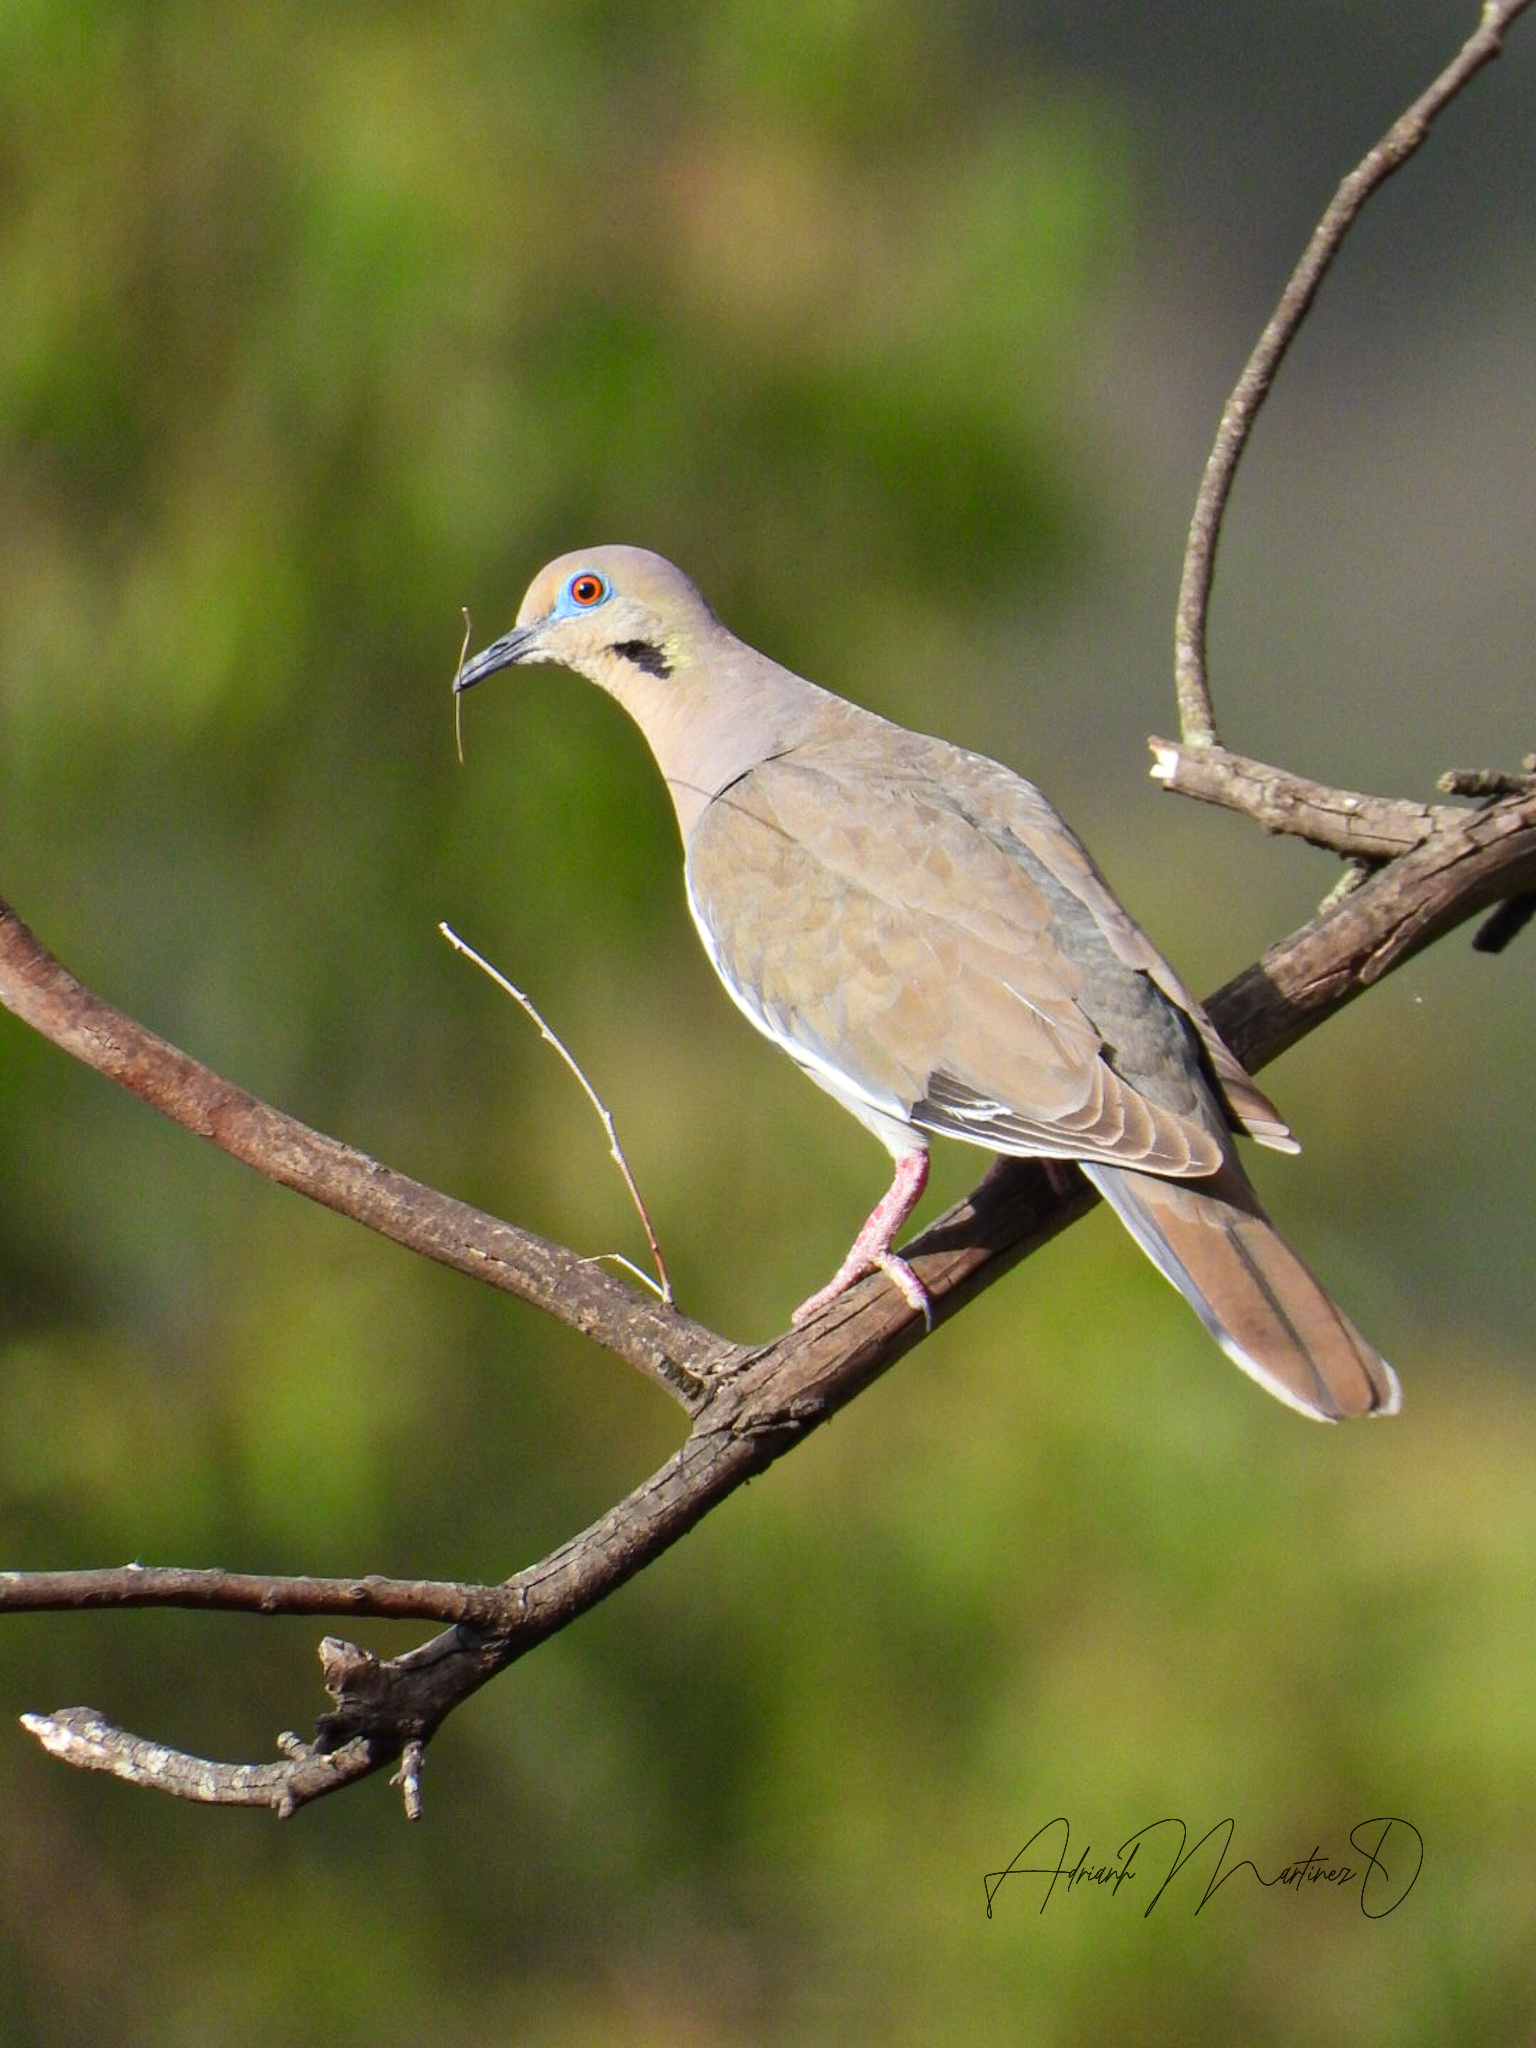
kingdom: Animalia
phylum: Chordata
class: Aves
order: Columbiformes
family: Columbidae
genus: Zenaida
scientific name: Zenaida asiatica
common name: White-winged dove
